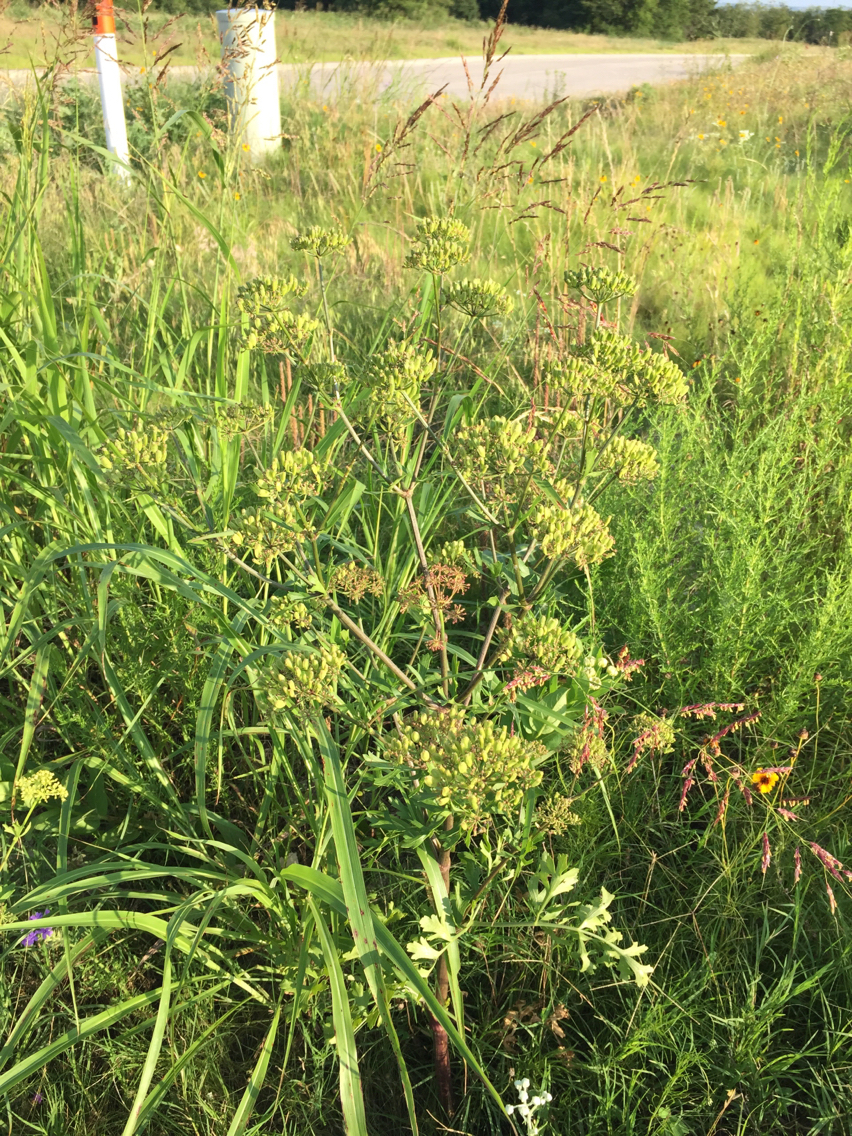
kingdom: Plantae
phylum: Tracheophyta
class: Magnoliopsida
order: Apiales
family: Apiaceae
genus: Polytaenia
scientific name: Polytaenia texana
